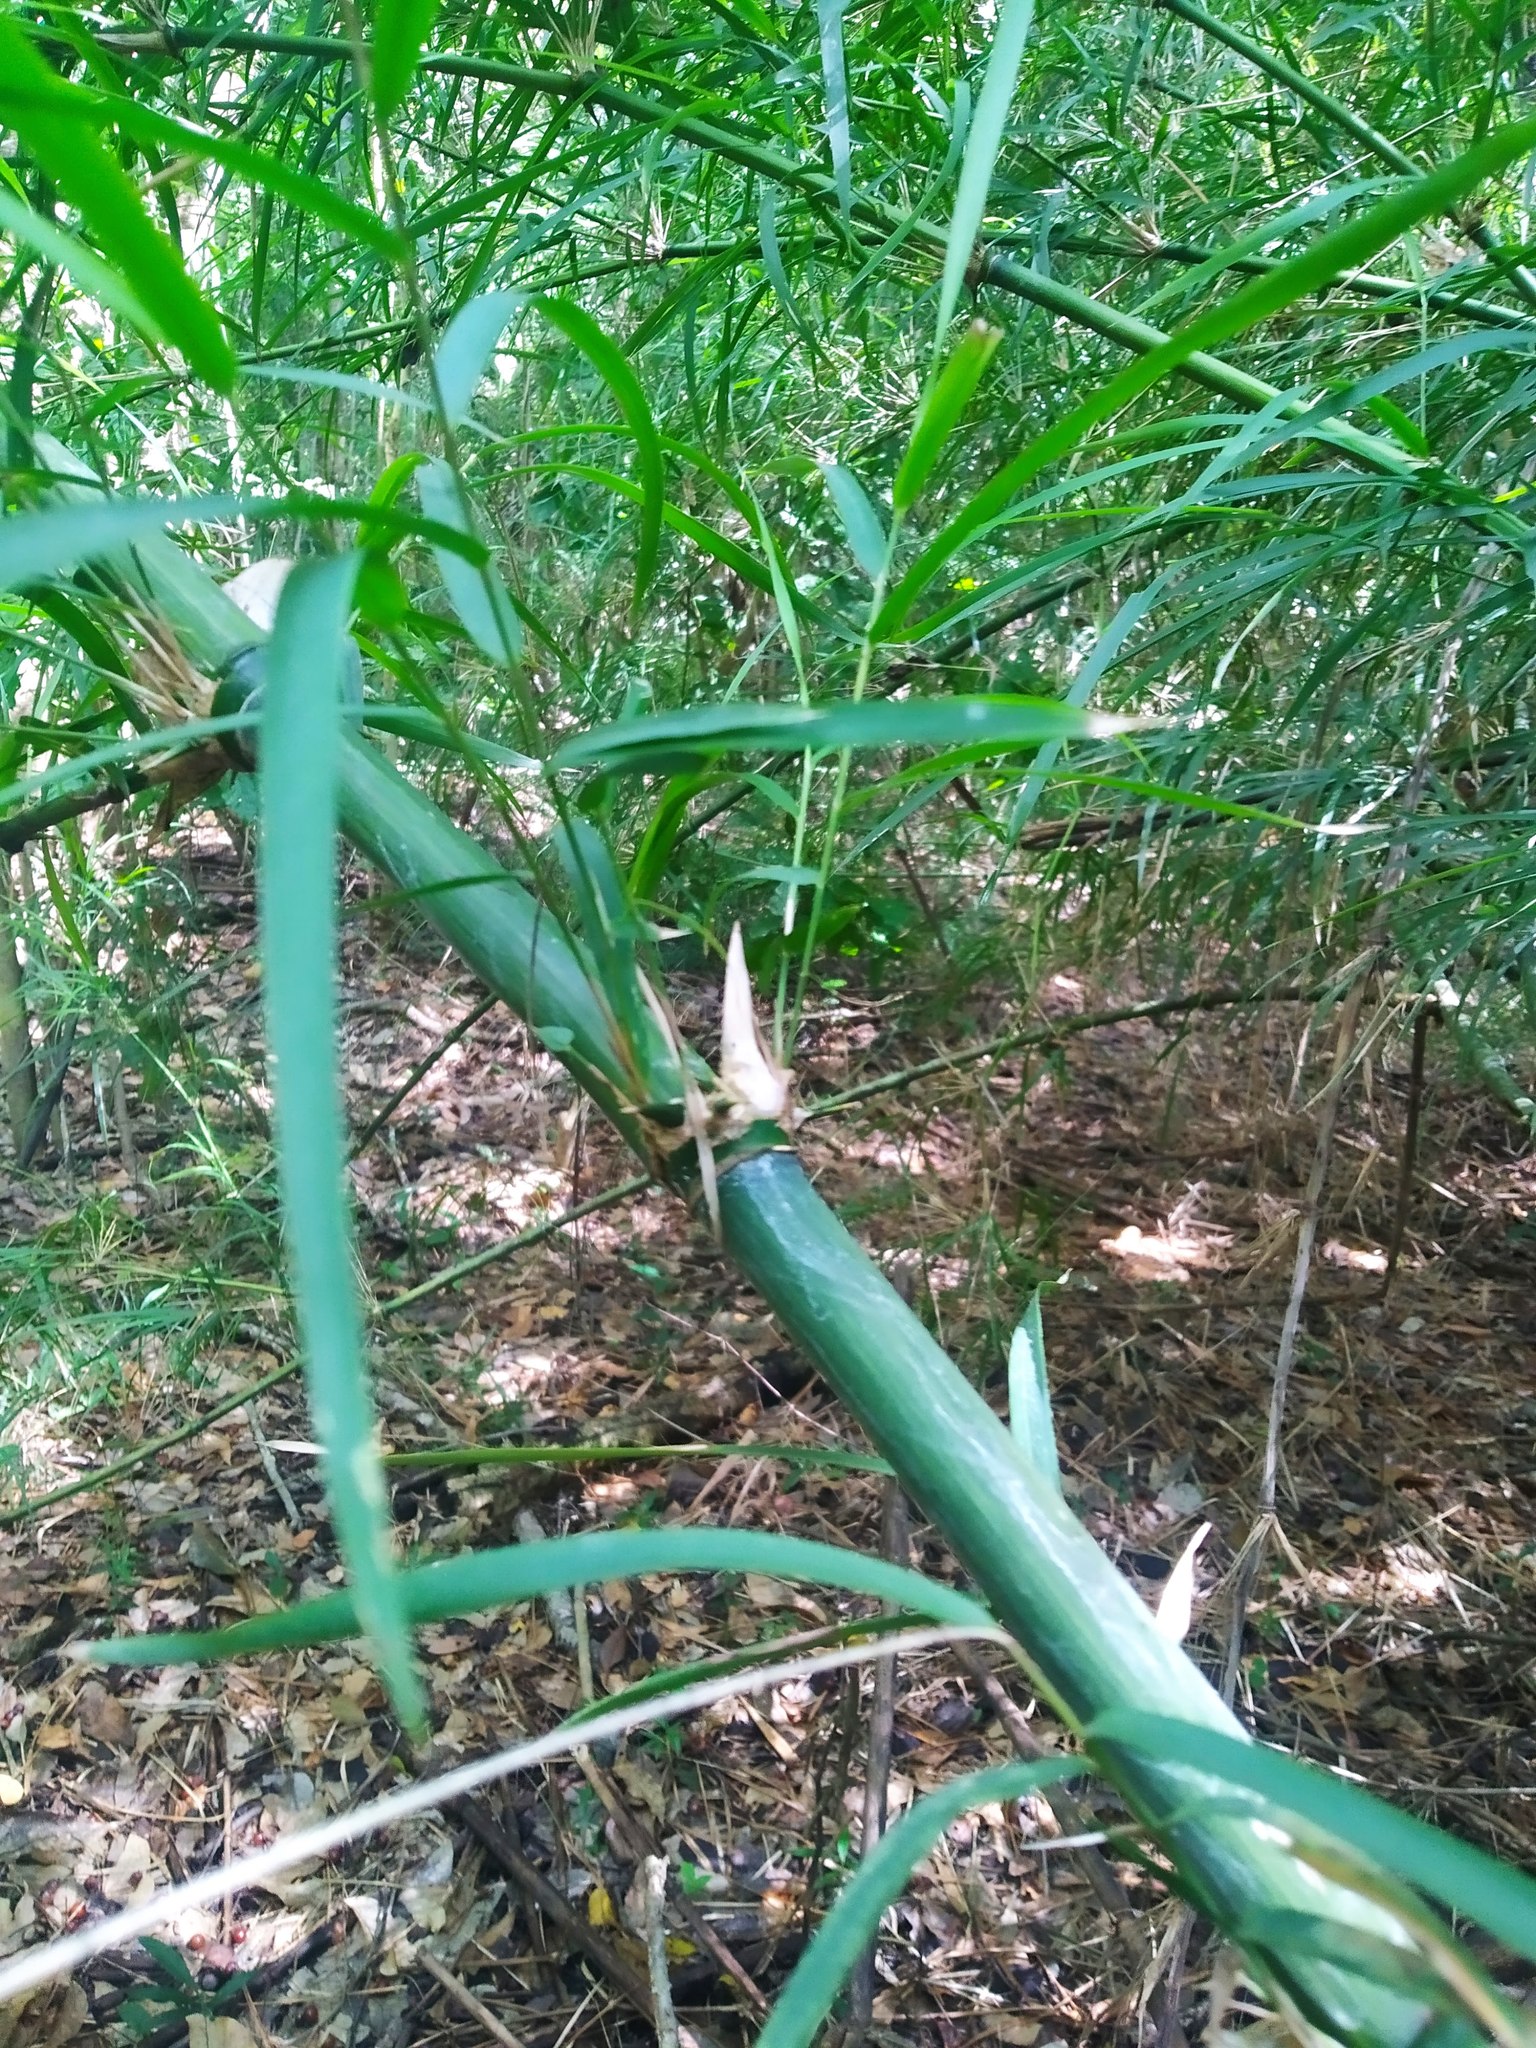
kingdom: Plantae
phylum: Tracheophyta
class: Liliopsida
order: Poales
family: Poaceae
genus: Guadua
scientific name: Guadua longifolia
